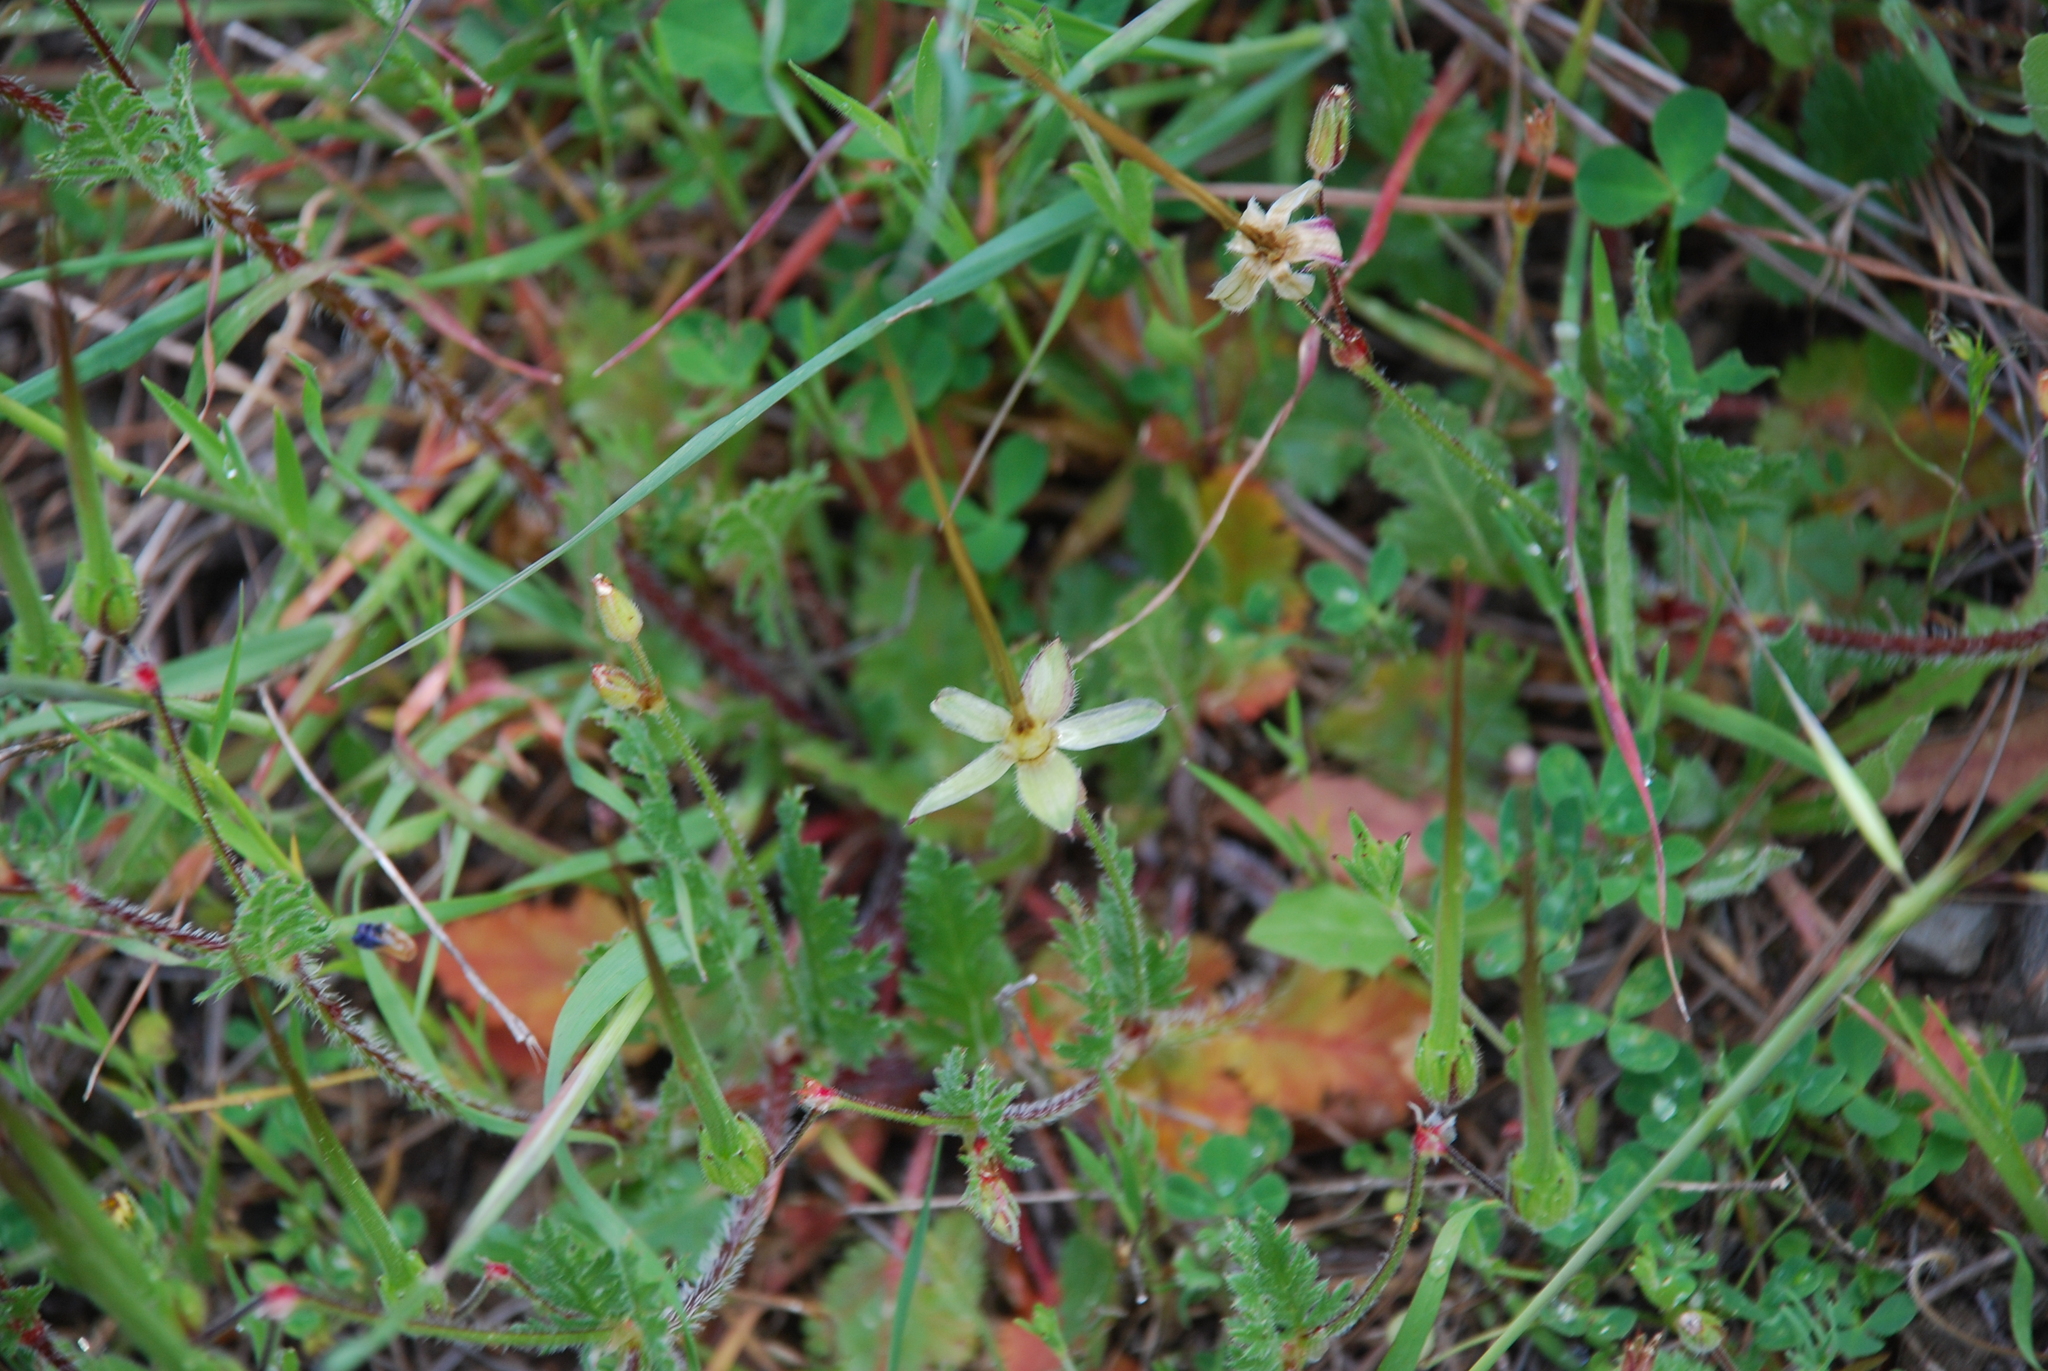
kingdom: Plantae
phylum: Tracheophyta
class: Magnoliopsida
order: Geraniales
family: Geraniaceae
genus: Erodium
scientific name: Erodium botrys
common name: Mediterranean stork's-bill
